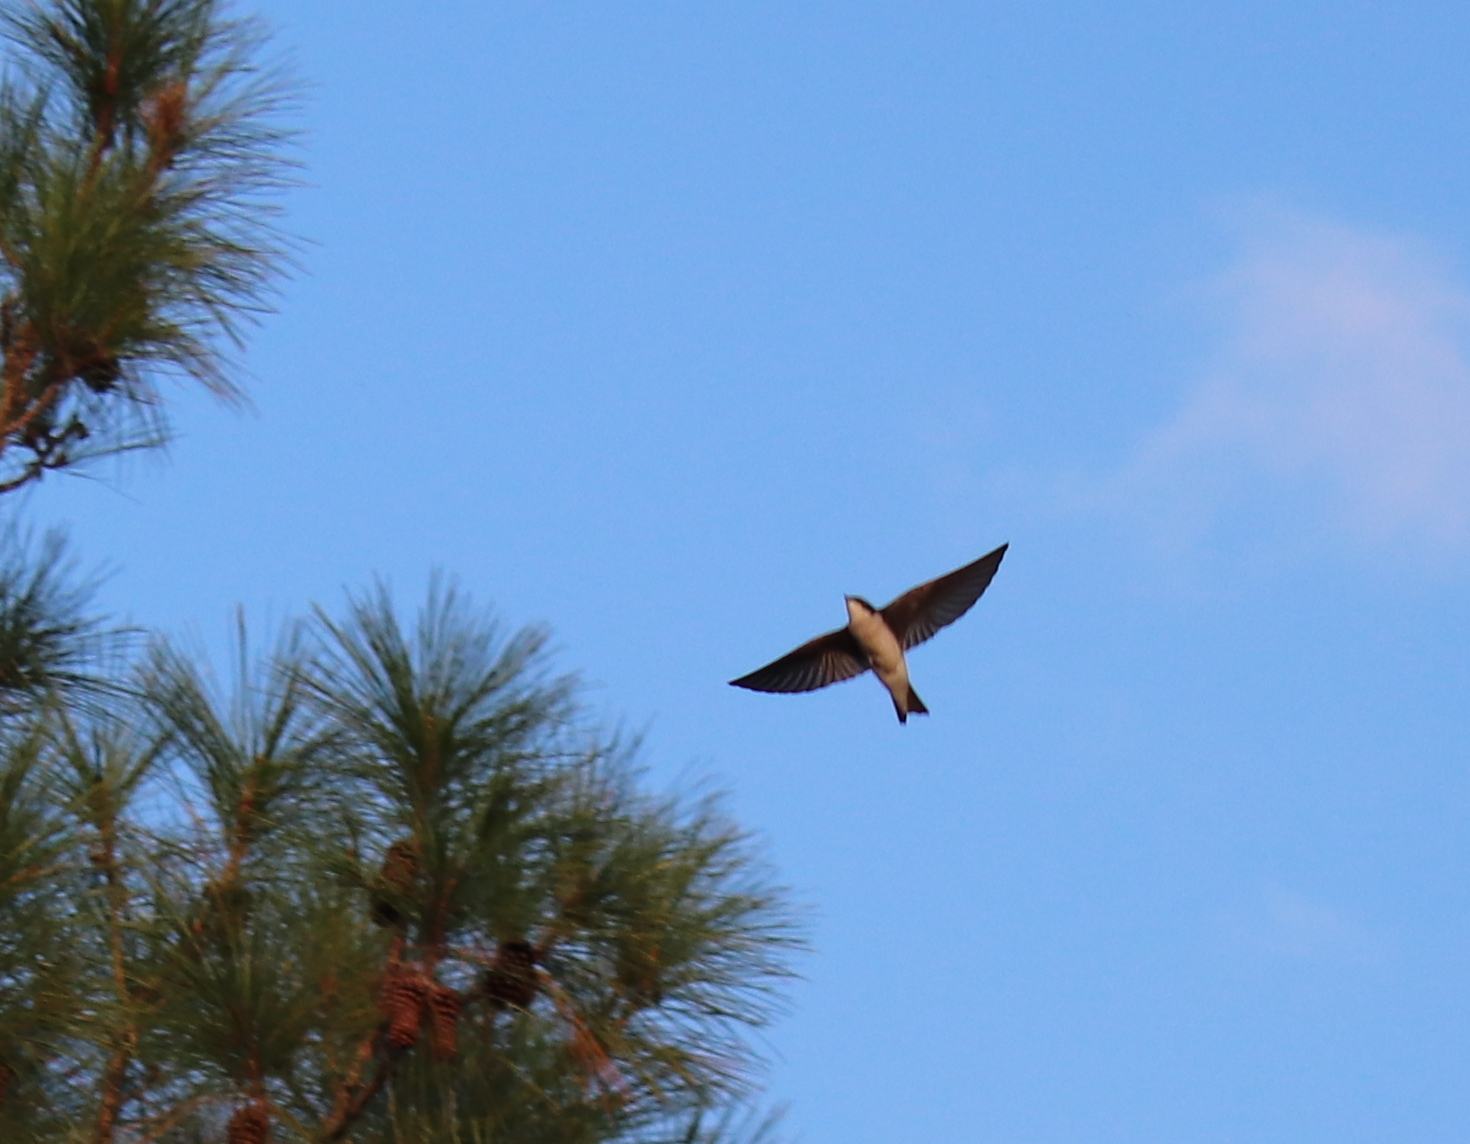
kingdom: Animalia
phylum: Chordata
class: Aves
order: Passeriformes
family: Hirundinidae
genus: Tachycineta
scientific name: Tachycineta bicolor
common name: Tree swallow
